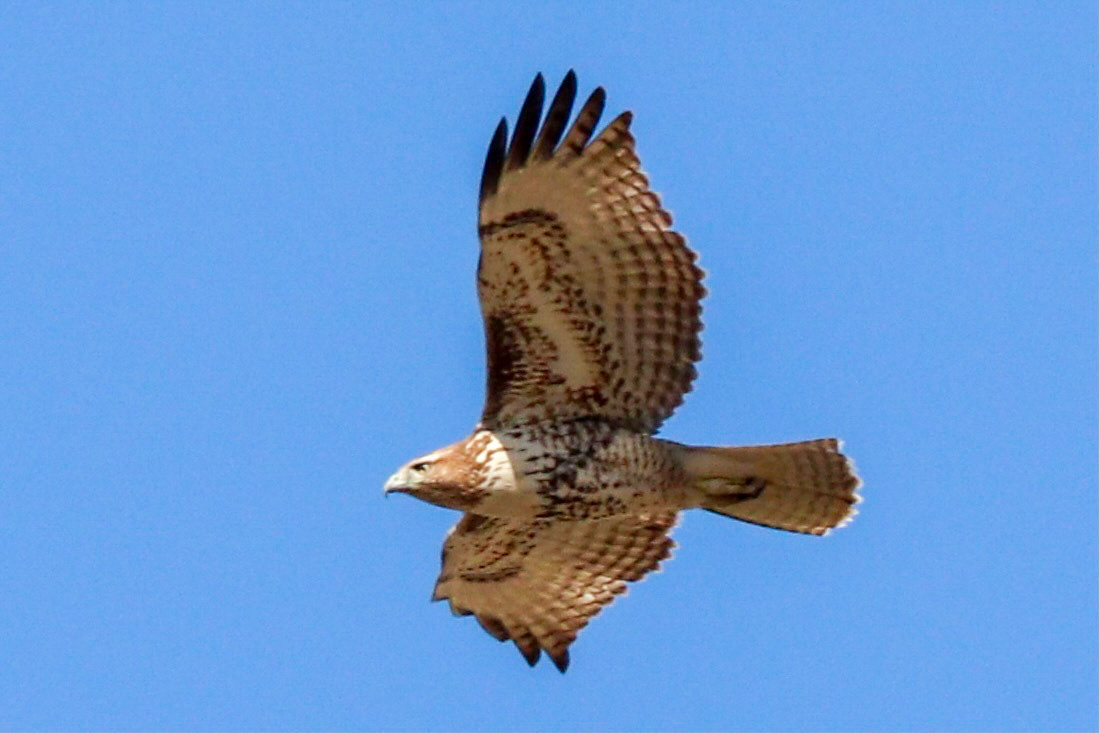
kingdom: Animalia
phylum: Chordata
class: Aves
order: Accipitriformes
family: Accipitridae
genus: Buteo
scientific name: Buteo jamaicensis
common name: Red-tailed hawk
